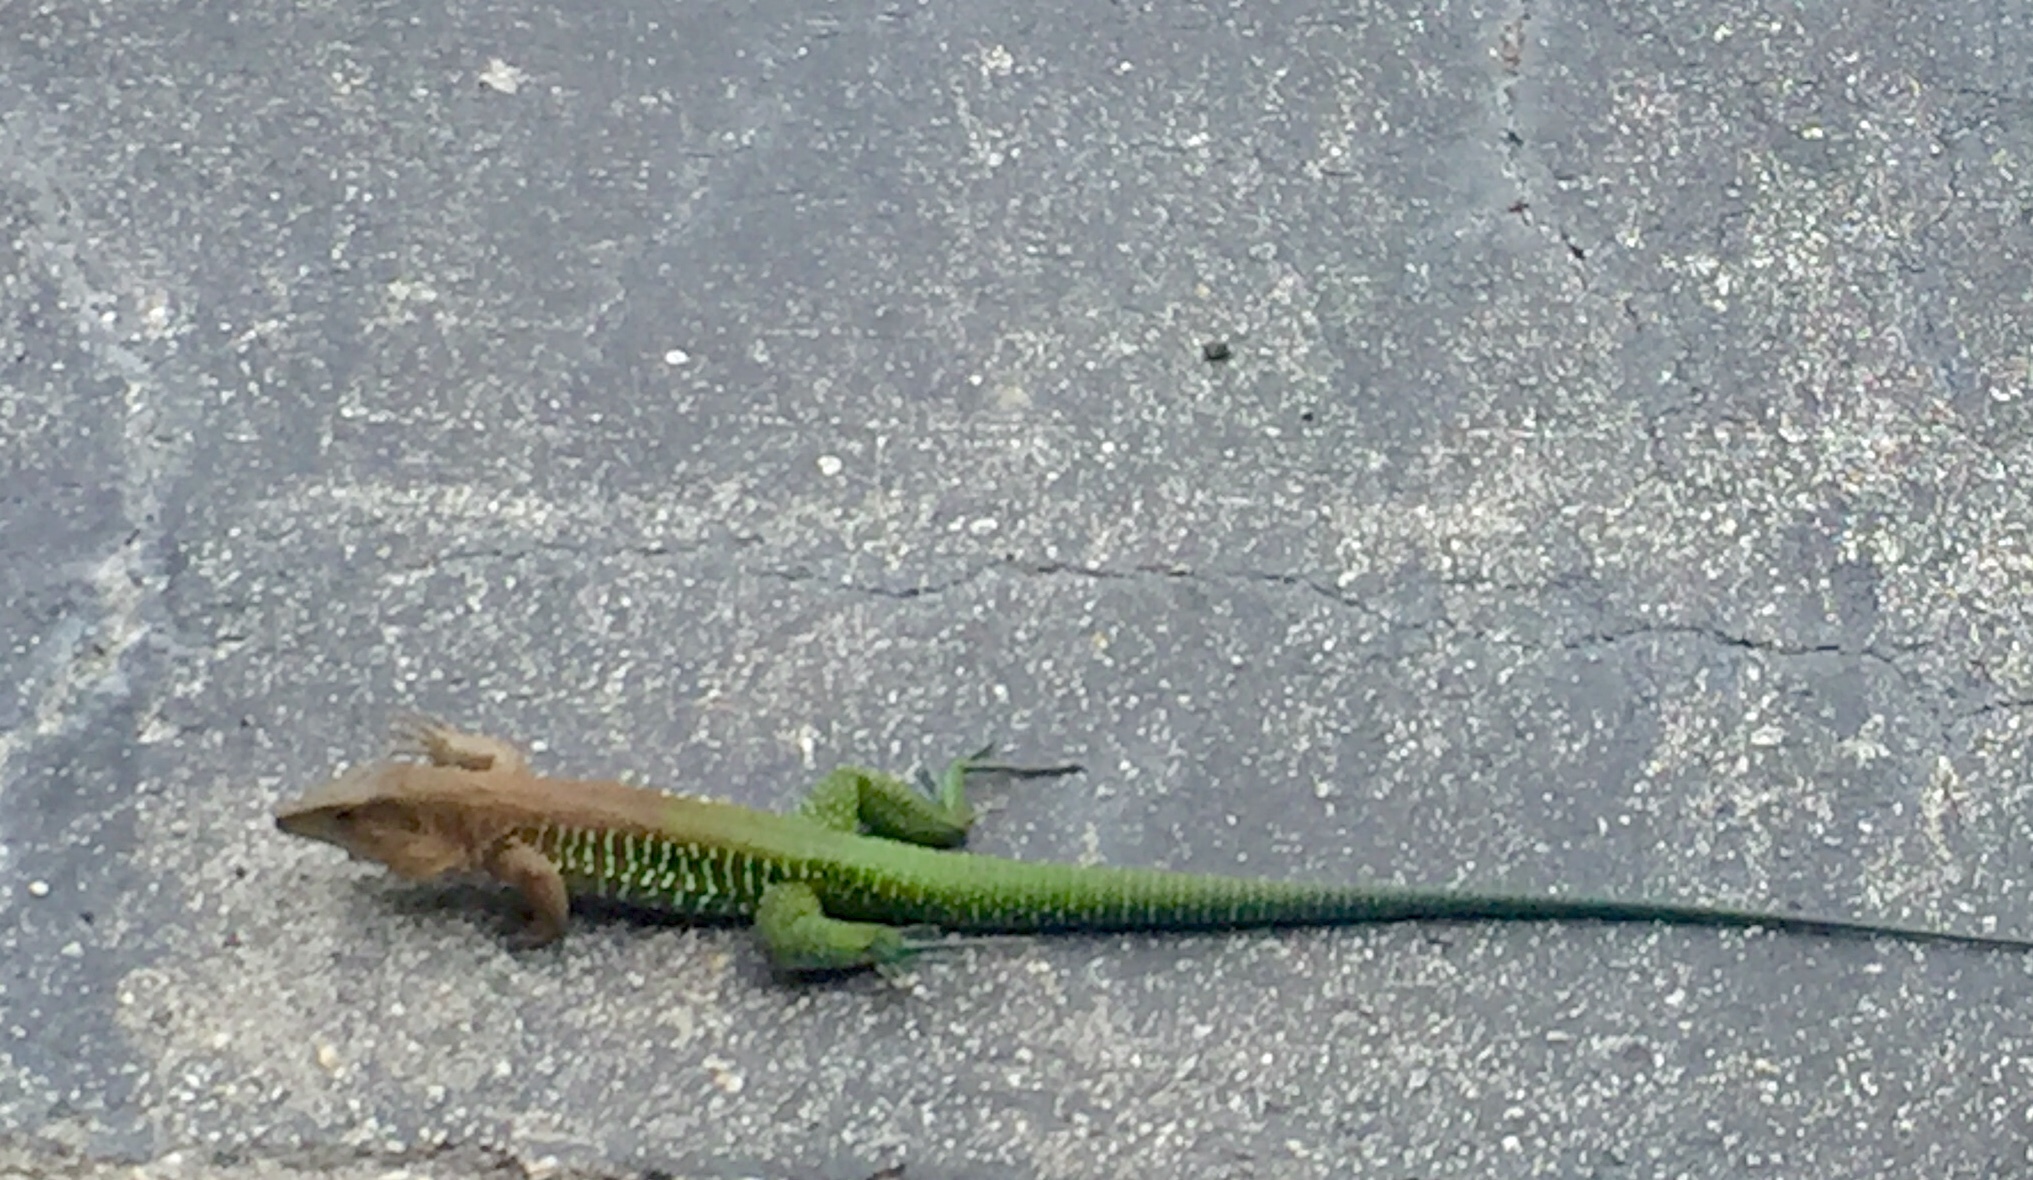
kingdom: Animalia
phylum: Chordata
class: Squamata
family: Teiidae
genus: Ameiva
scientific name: Ameiva ameiva
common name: Giant ameiva
